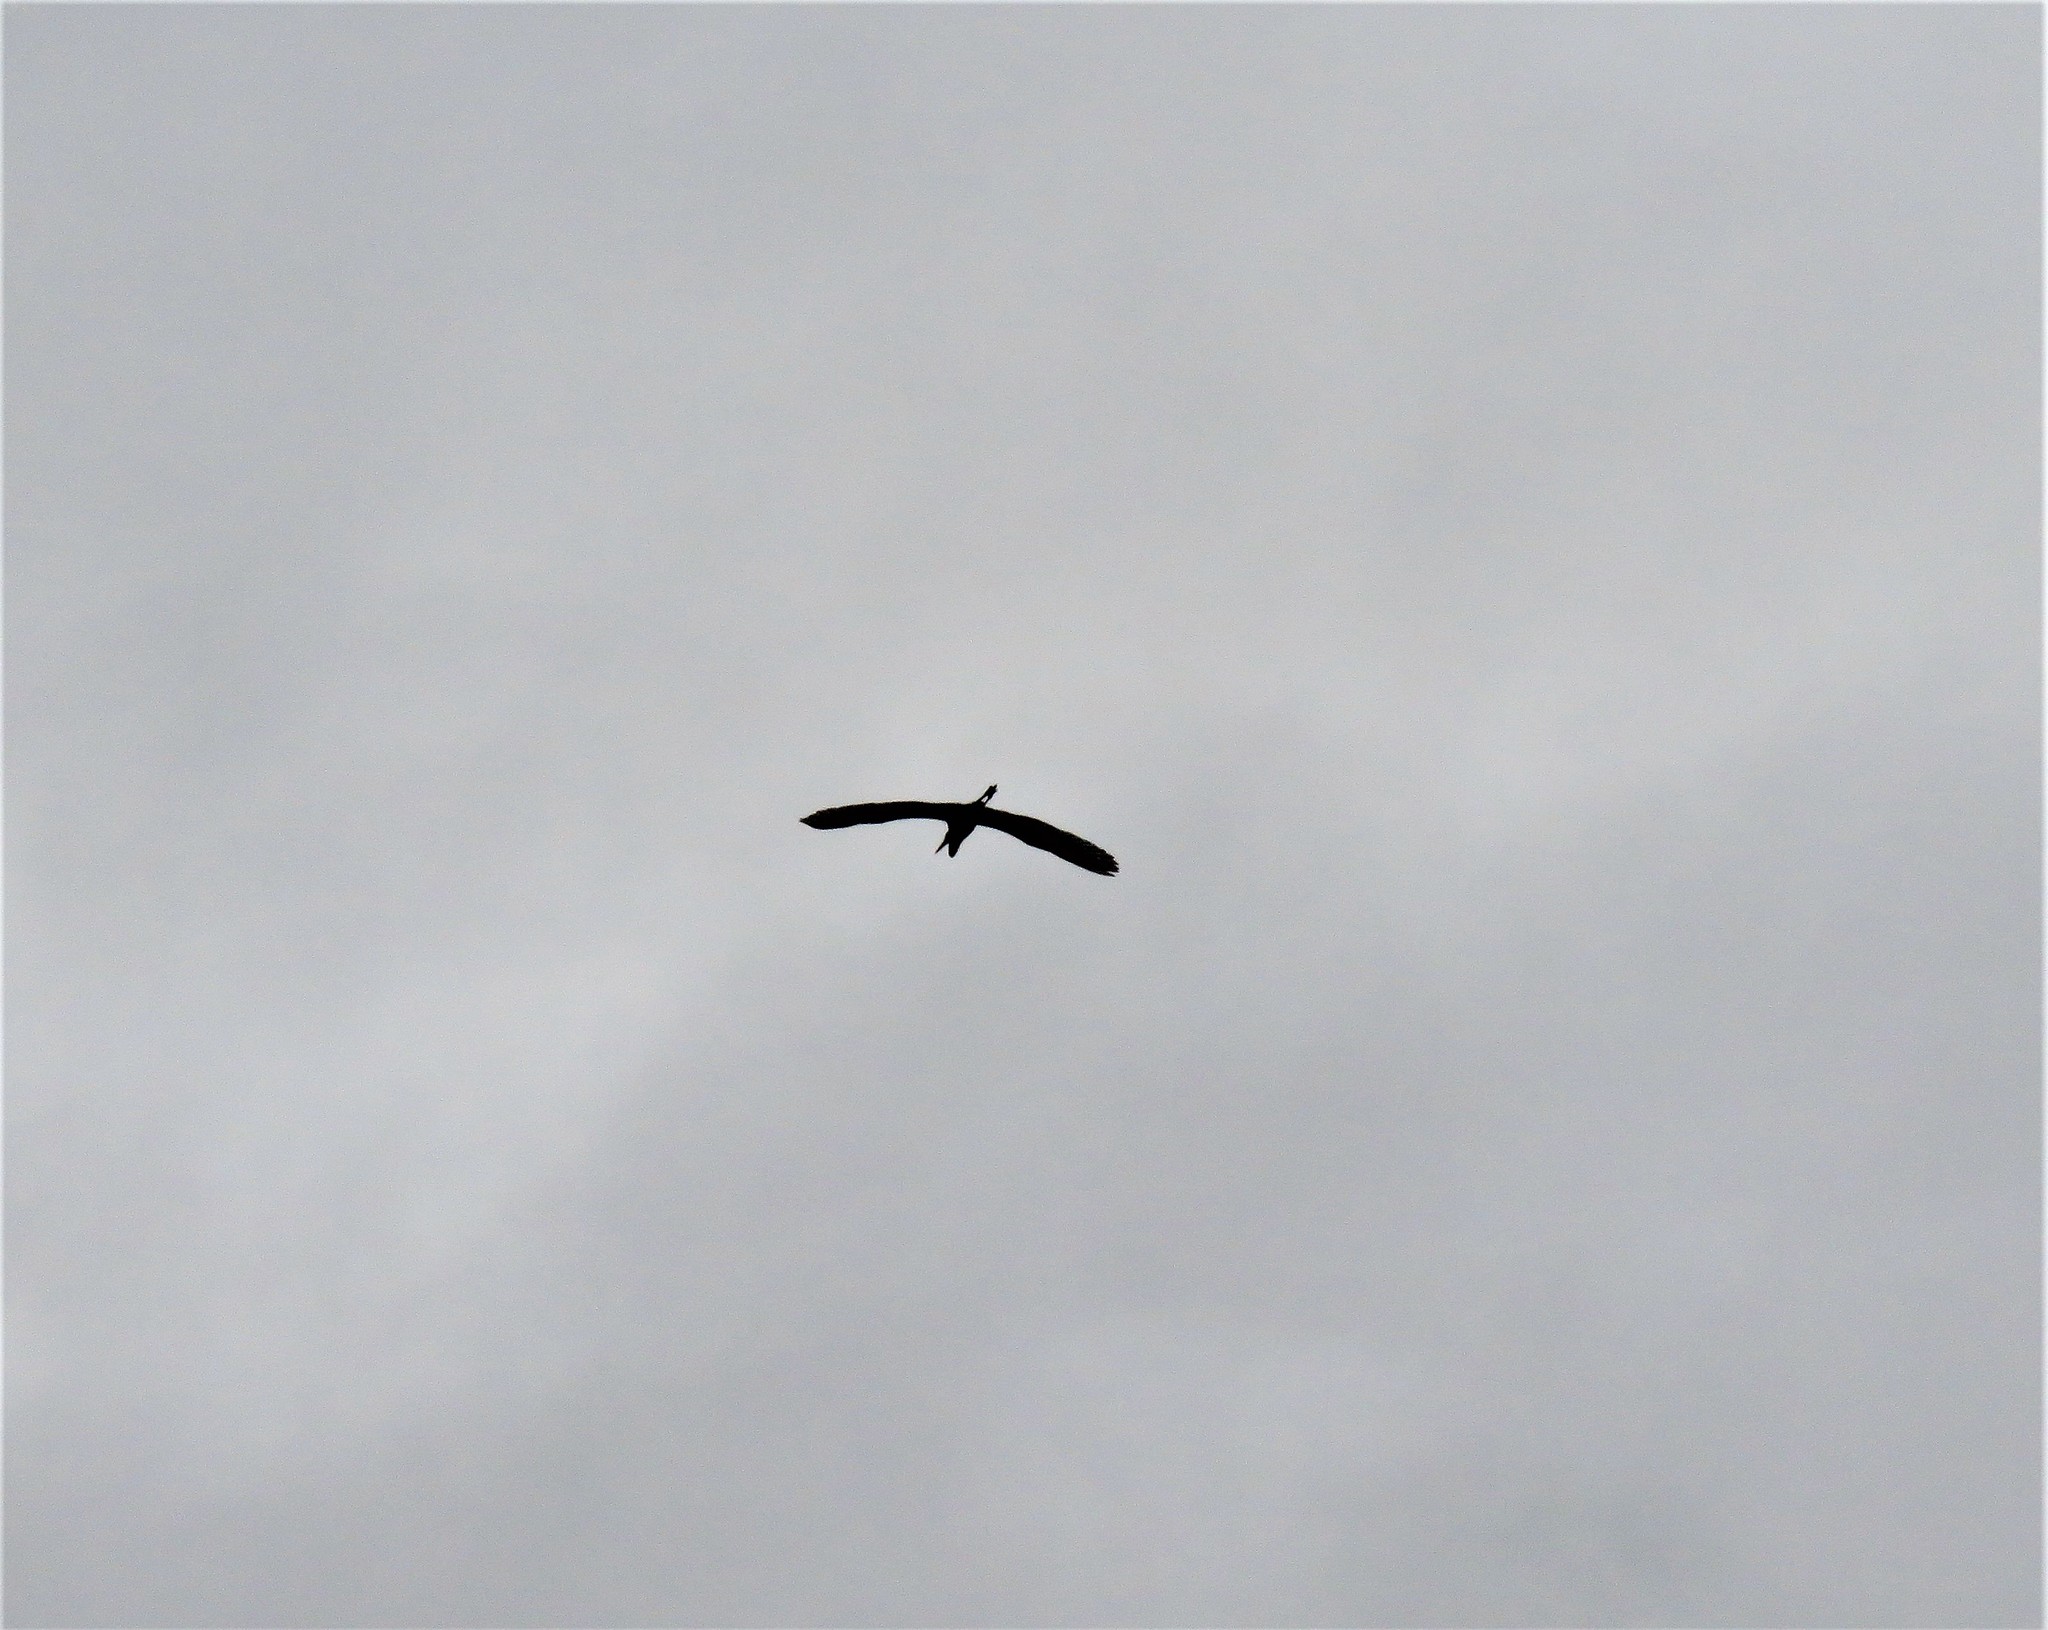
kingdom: Animalia
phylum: Chordata
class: Aves
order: Pelecaniformes
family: Ardeidae
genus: Ardea
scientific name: Ardea alba
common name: Great egret
